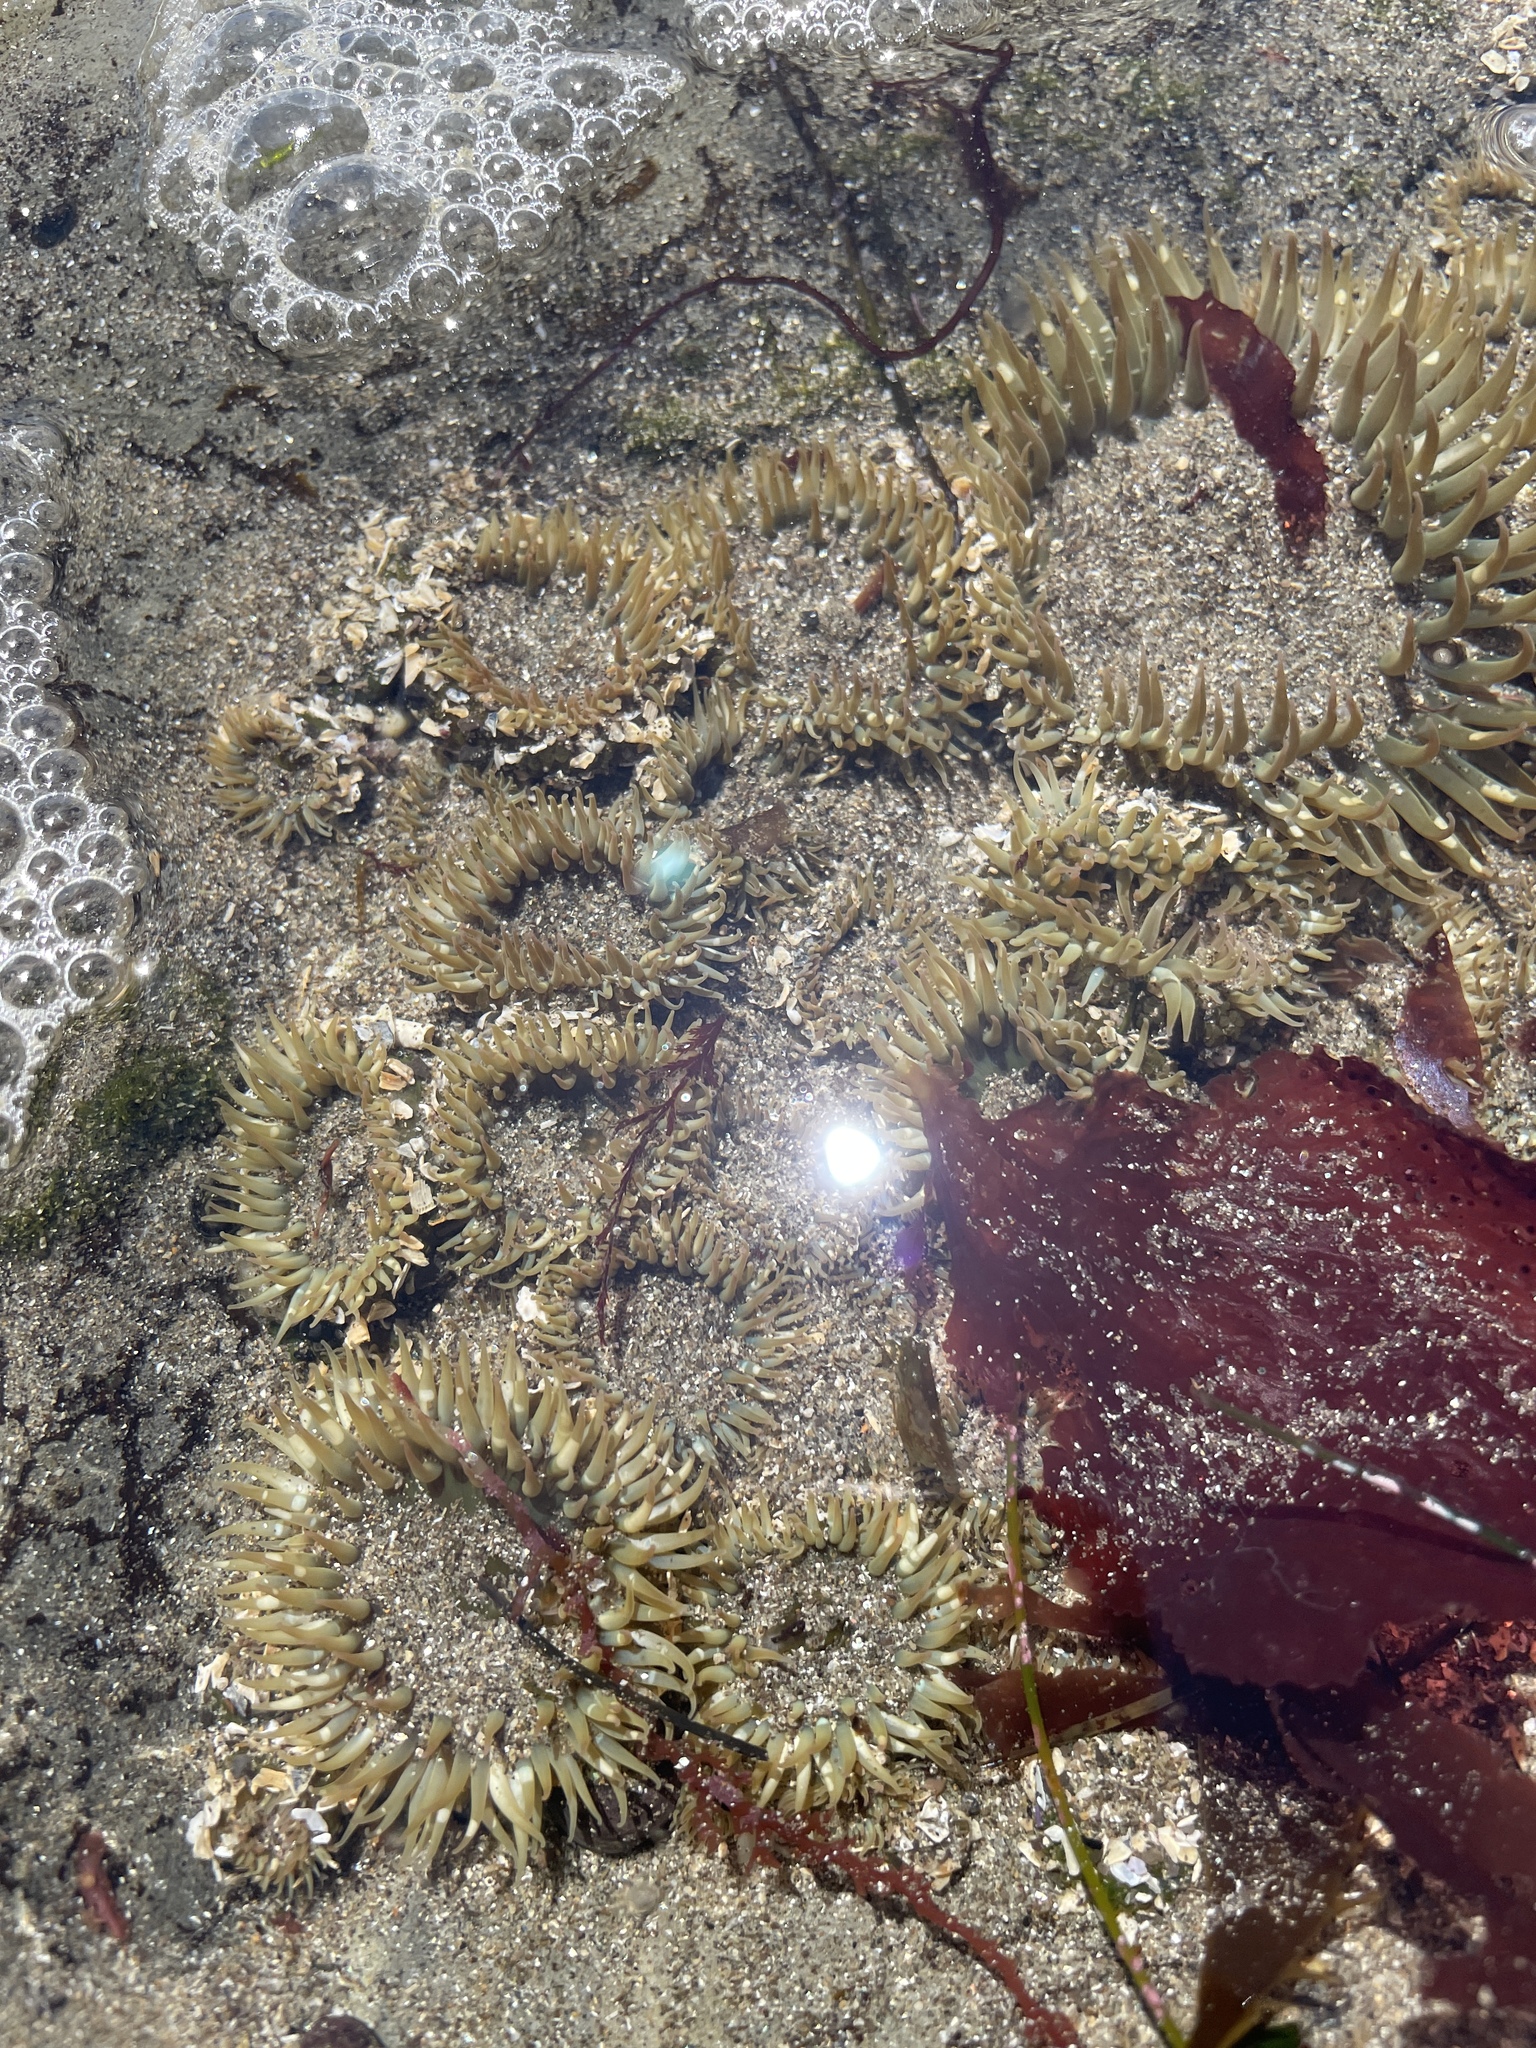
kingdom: Animalia
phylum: Cnidaria
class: Anthozoa
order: Actiniaria
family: Actiniidae
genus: Anthopleura
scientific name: Anthopleura elegantissima
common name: Clonal anemone
